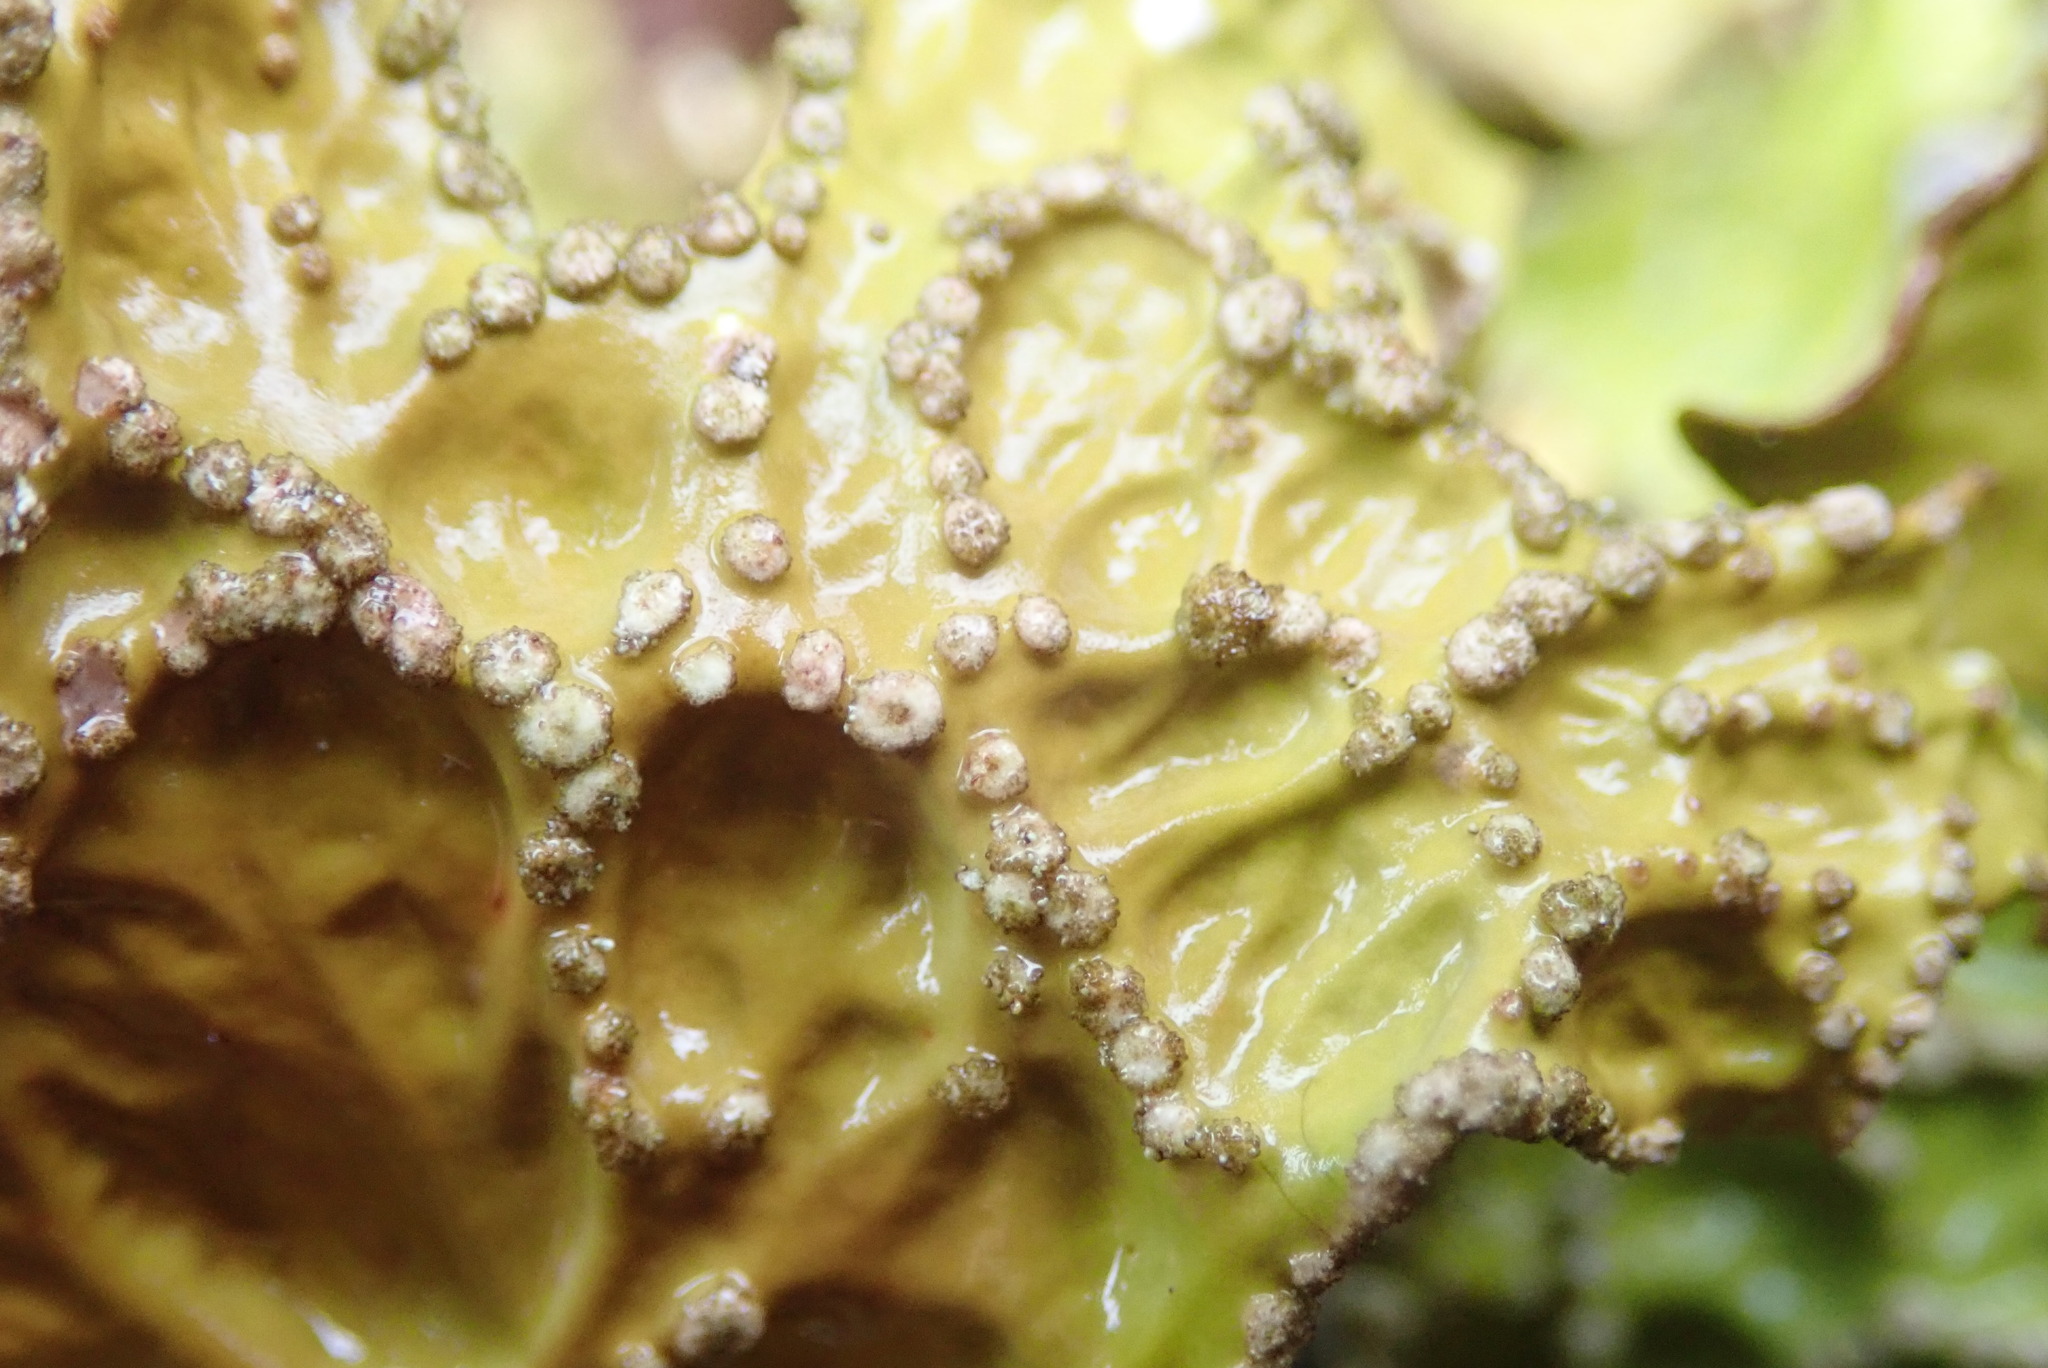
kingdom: Fungi
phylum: Ascomycota
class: Lecanoromycetes
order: Peltigerales
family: Lobariaceae
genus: Lobaria
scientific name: Lobaria pulmonaria
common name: Lungwort
